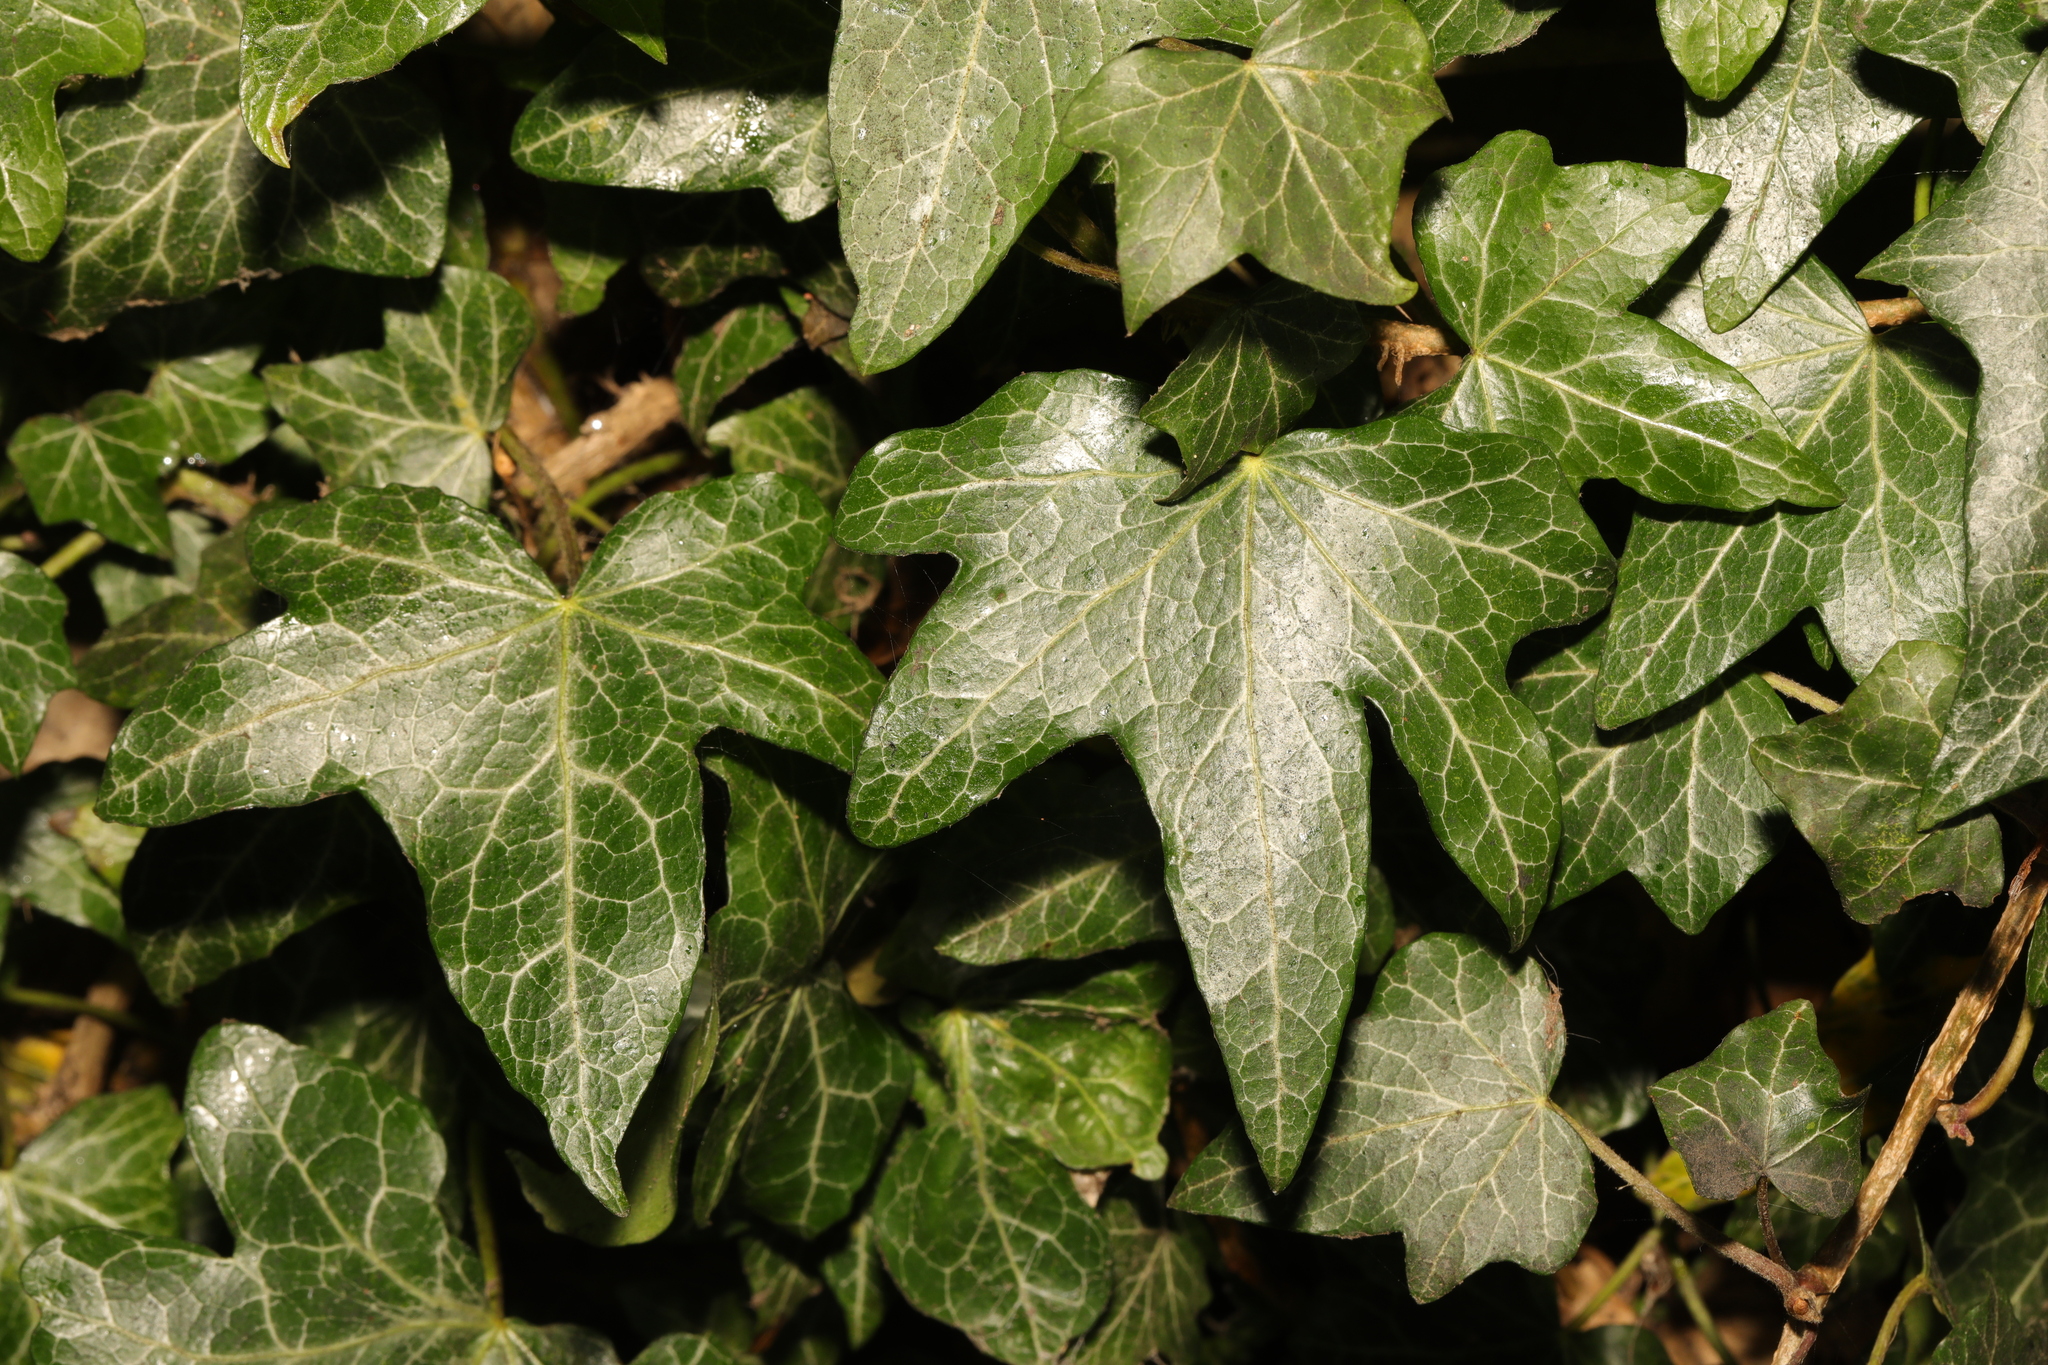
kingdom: Plantae
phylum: Tracheophyta
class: Magnoliopsida
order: Apiales
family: Araliaceae
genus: Hedera
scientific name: Hedera helix
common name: Ivy
